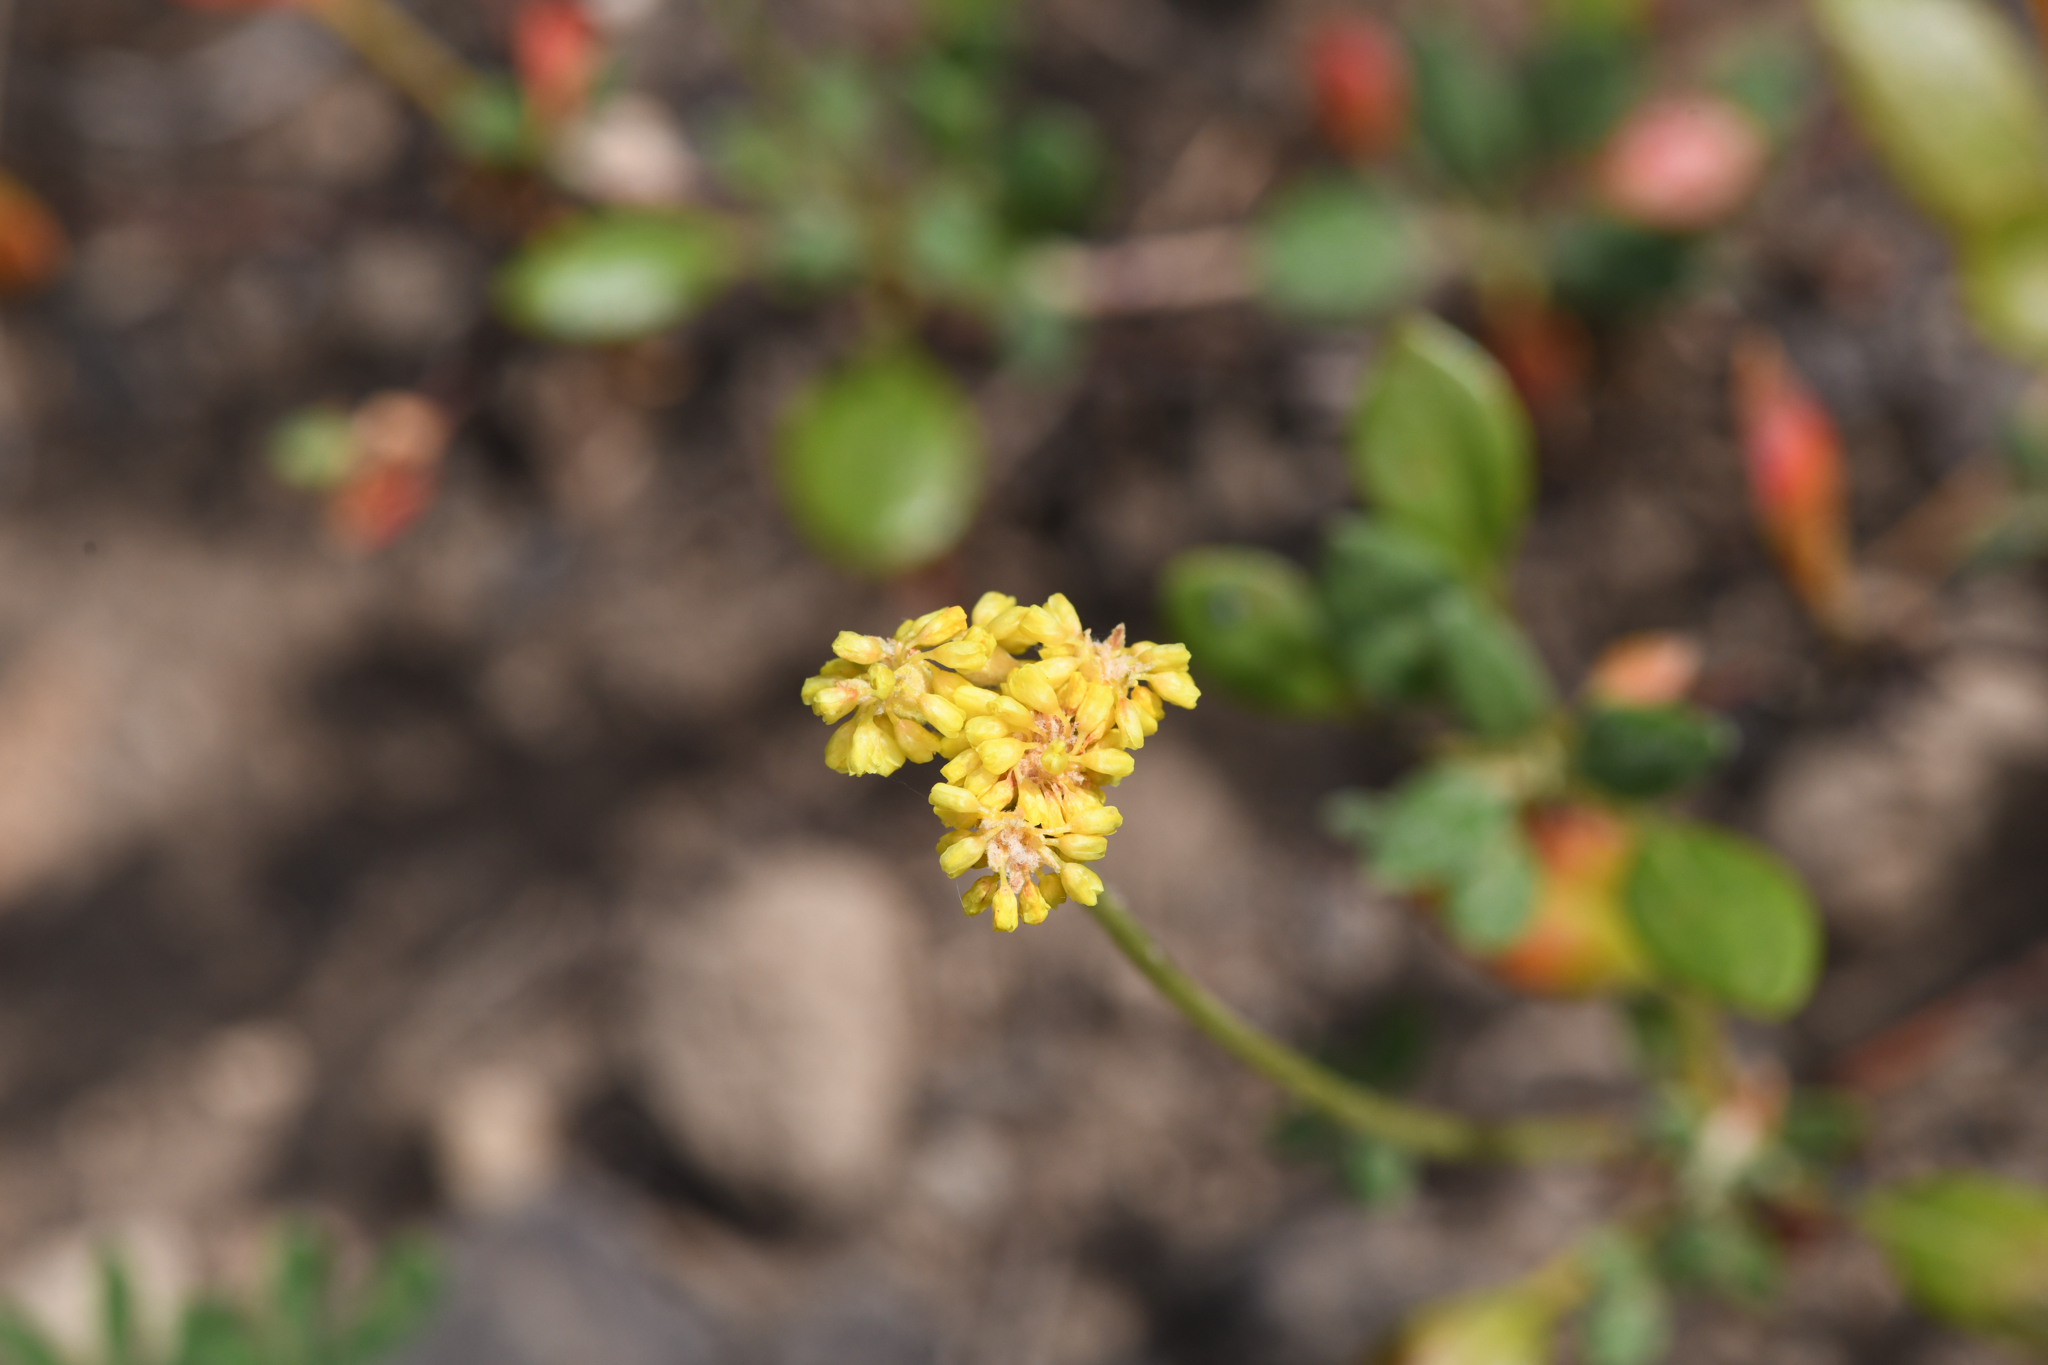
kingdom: Plantae
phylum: Tracheophyta
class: Magnoliopsida
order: Caryophyllales
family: Polygonaceae
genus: Eriogonum
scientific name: Eriogonum marifolium
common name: Marum-leaf wild buckwheat
